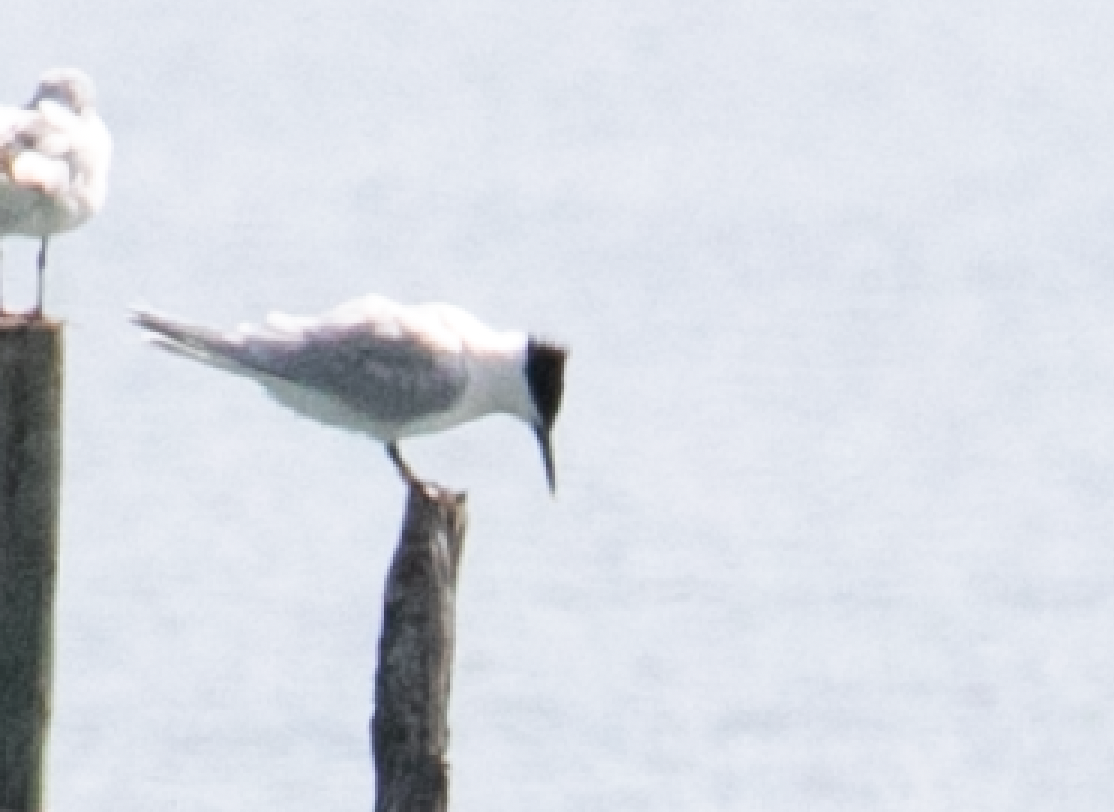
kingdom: Animalia
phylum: Chordata
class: Aves
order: Charadriiformes
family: Laridae
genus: Thalasseus
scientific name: Thalasseus sandvicensis
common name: Sandwich tern
